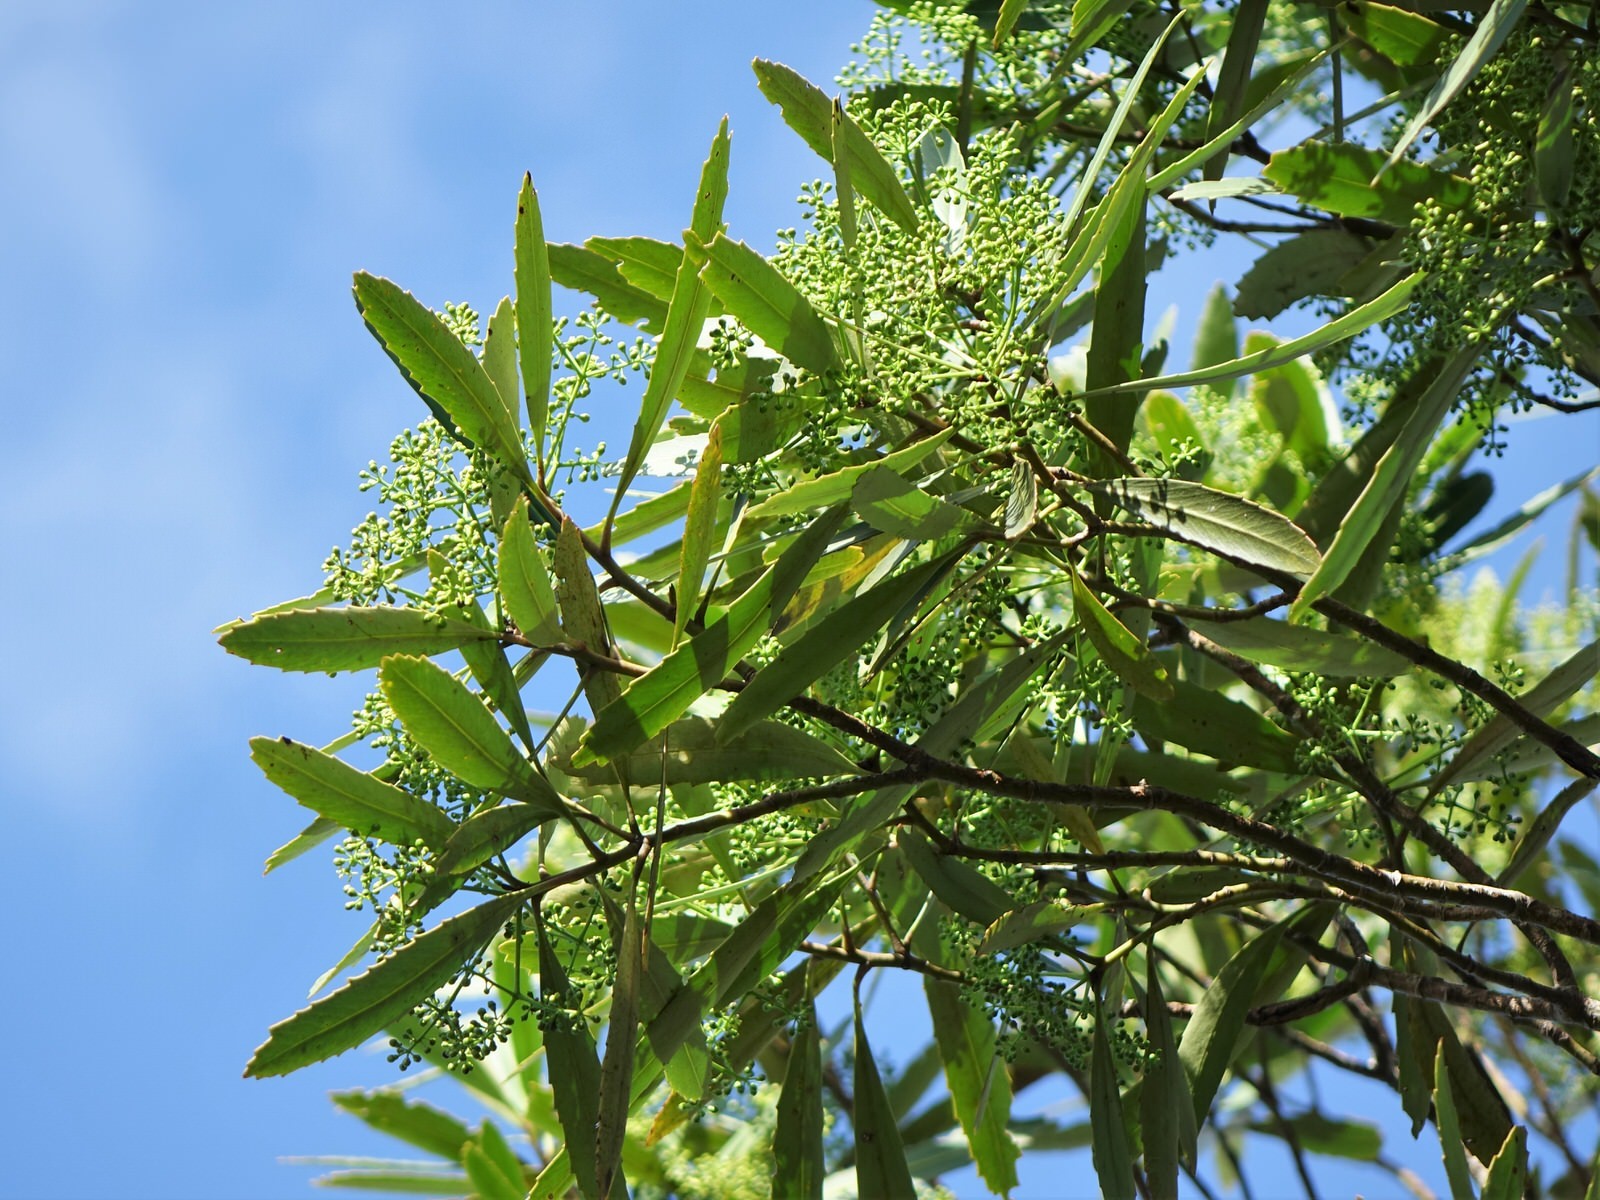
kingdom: Plantae
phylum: Tracheophyta
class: Magnoliopsida
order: Apiales
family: Araliaceae
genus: Pseudopanax
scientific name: Pseudopanax crassifolius
